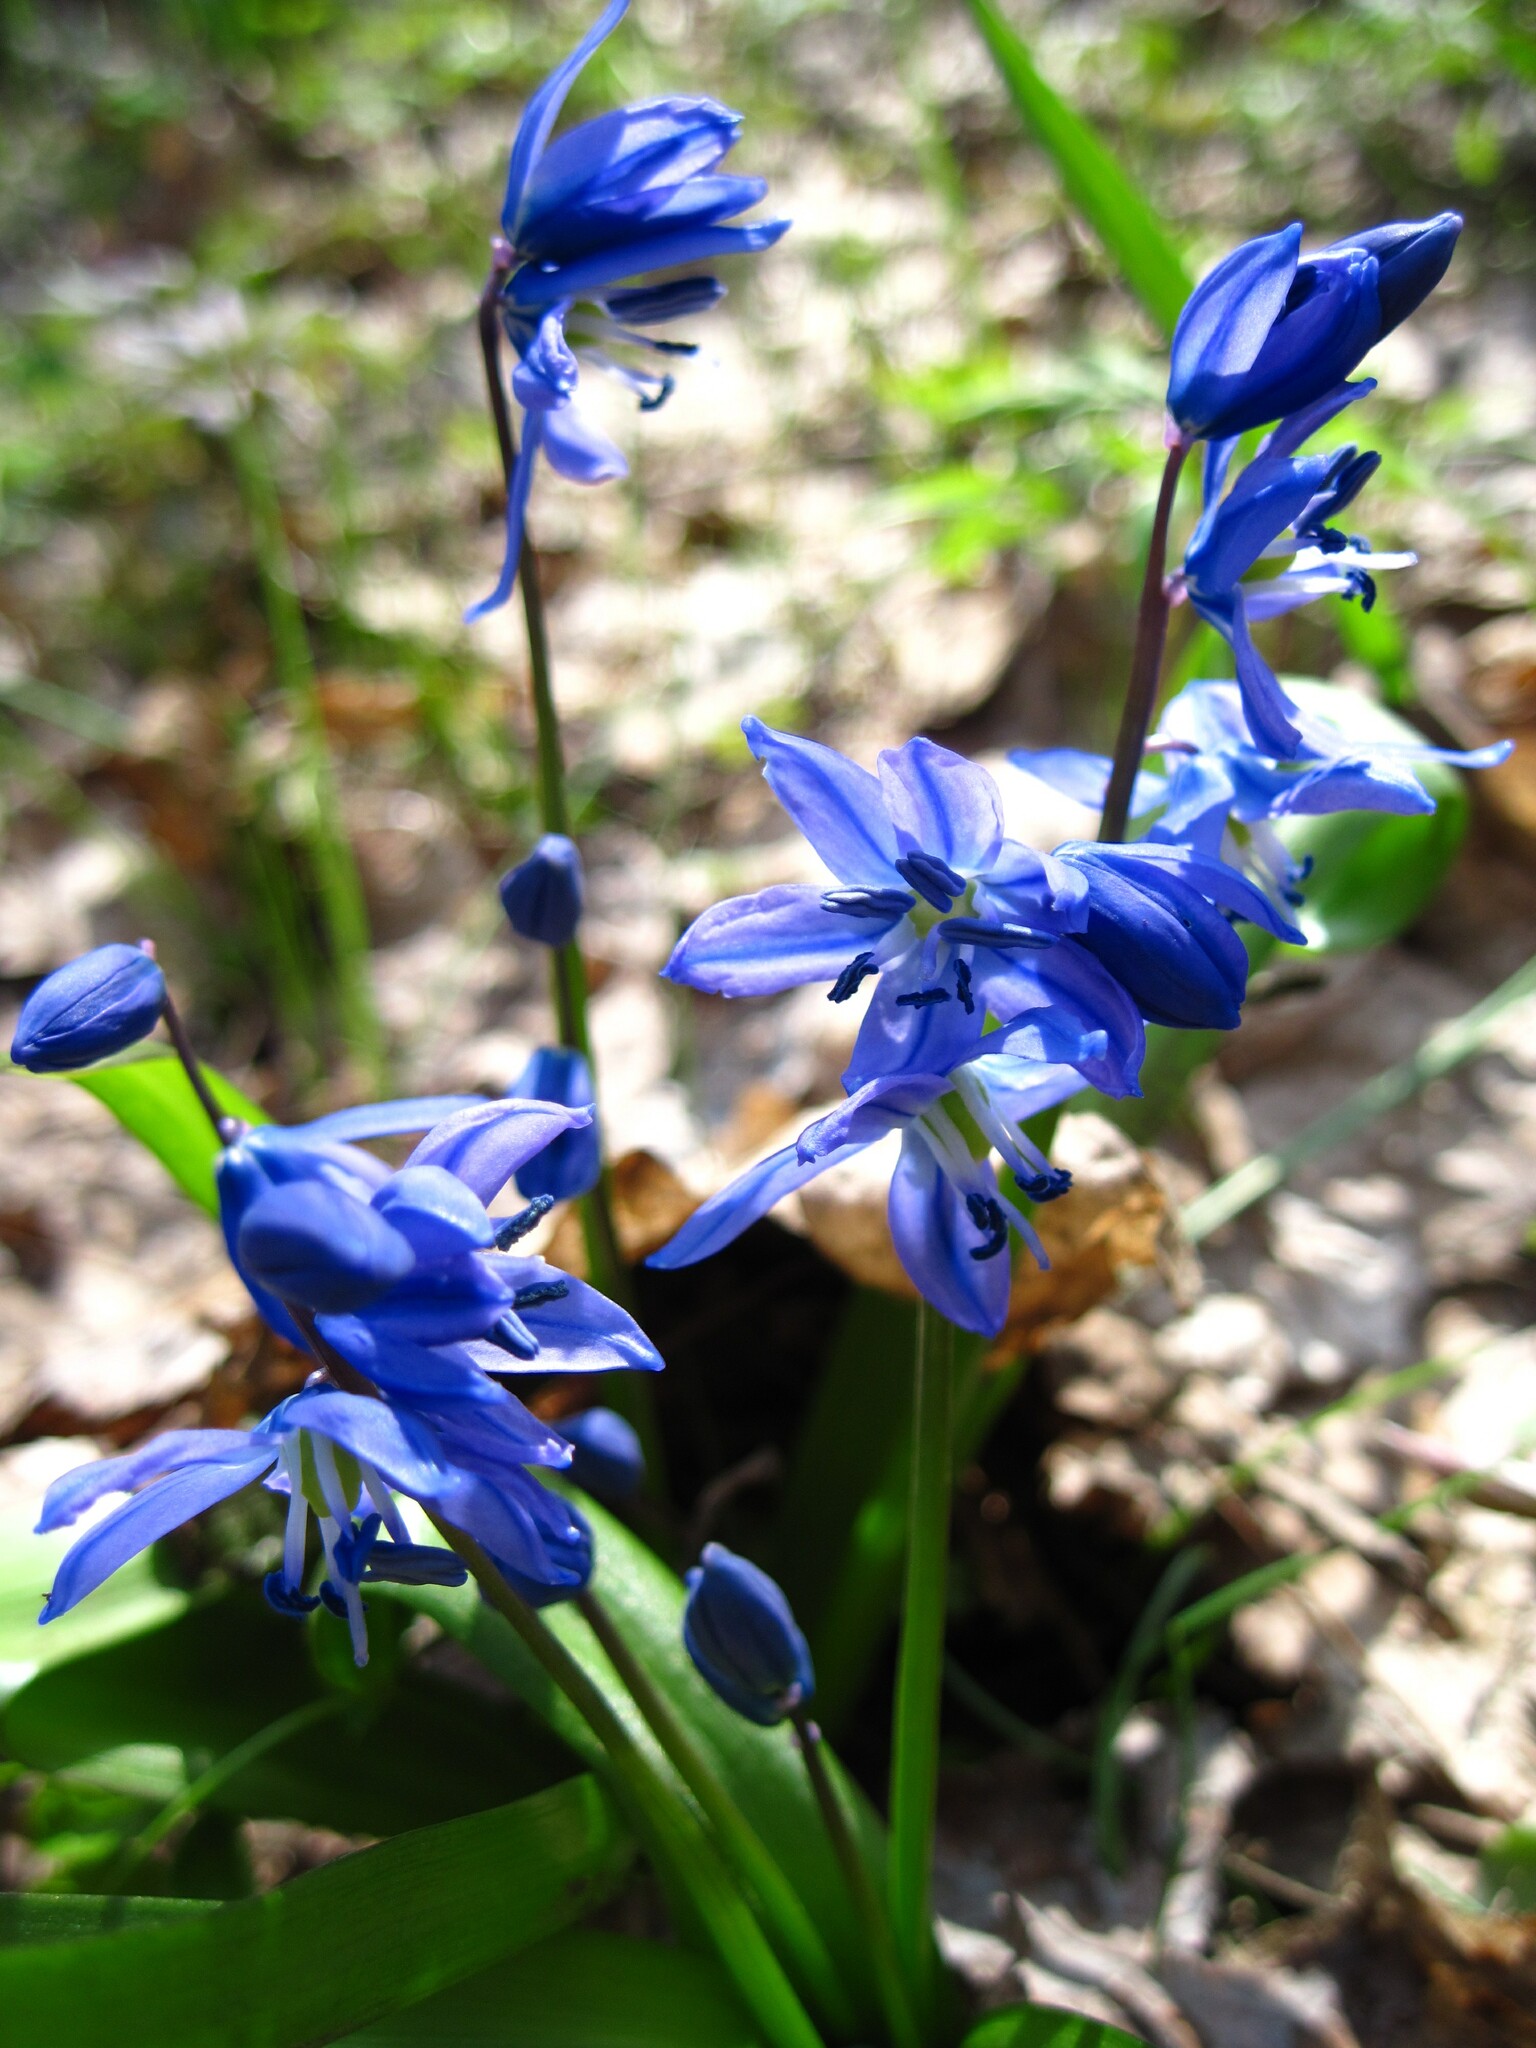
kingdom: Plantae
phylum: Tracheophyta
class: Liliopsida
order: Asparagales
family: Asparagaceae
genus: Scilla
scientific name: Scilla siberica
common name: Siberian squill
